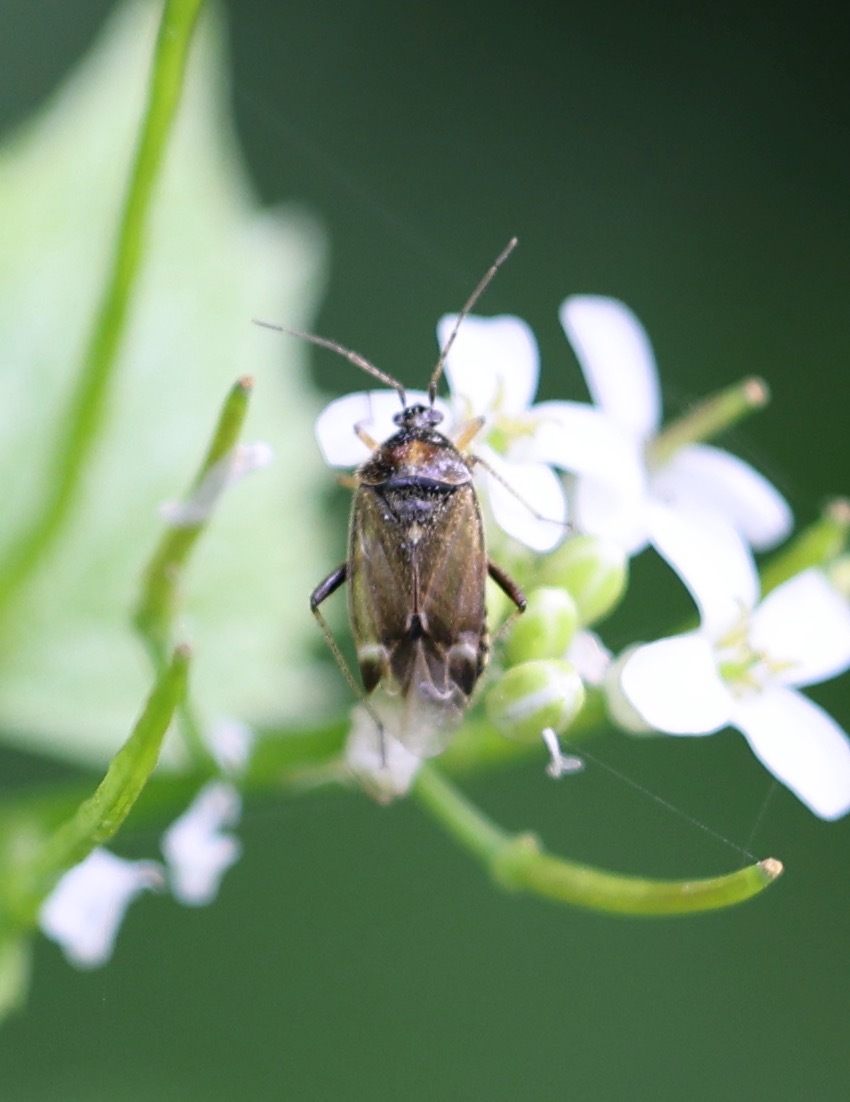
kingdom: Animalia
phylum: Arthropoda
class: Insecta
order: Hemiptera
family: Miridae
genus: Harpocera
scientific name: Harpocera thoracica
